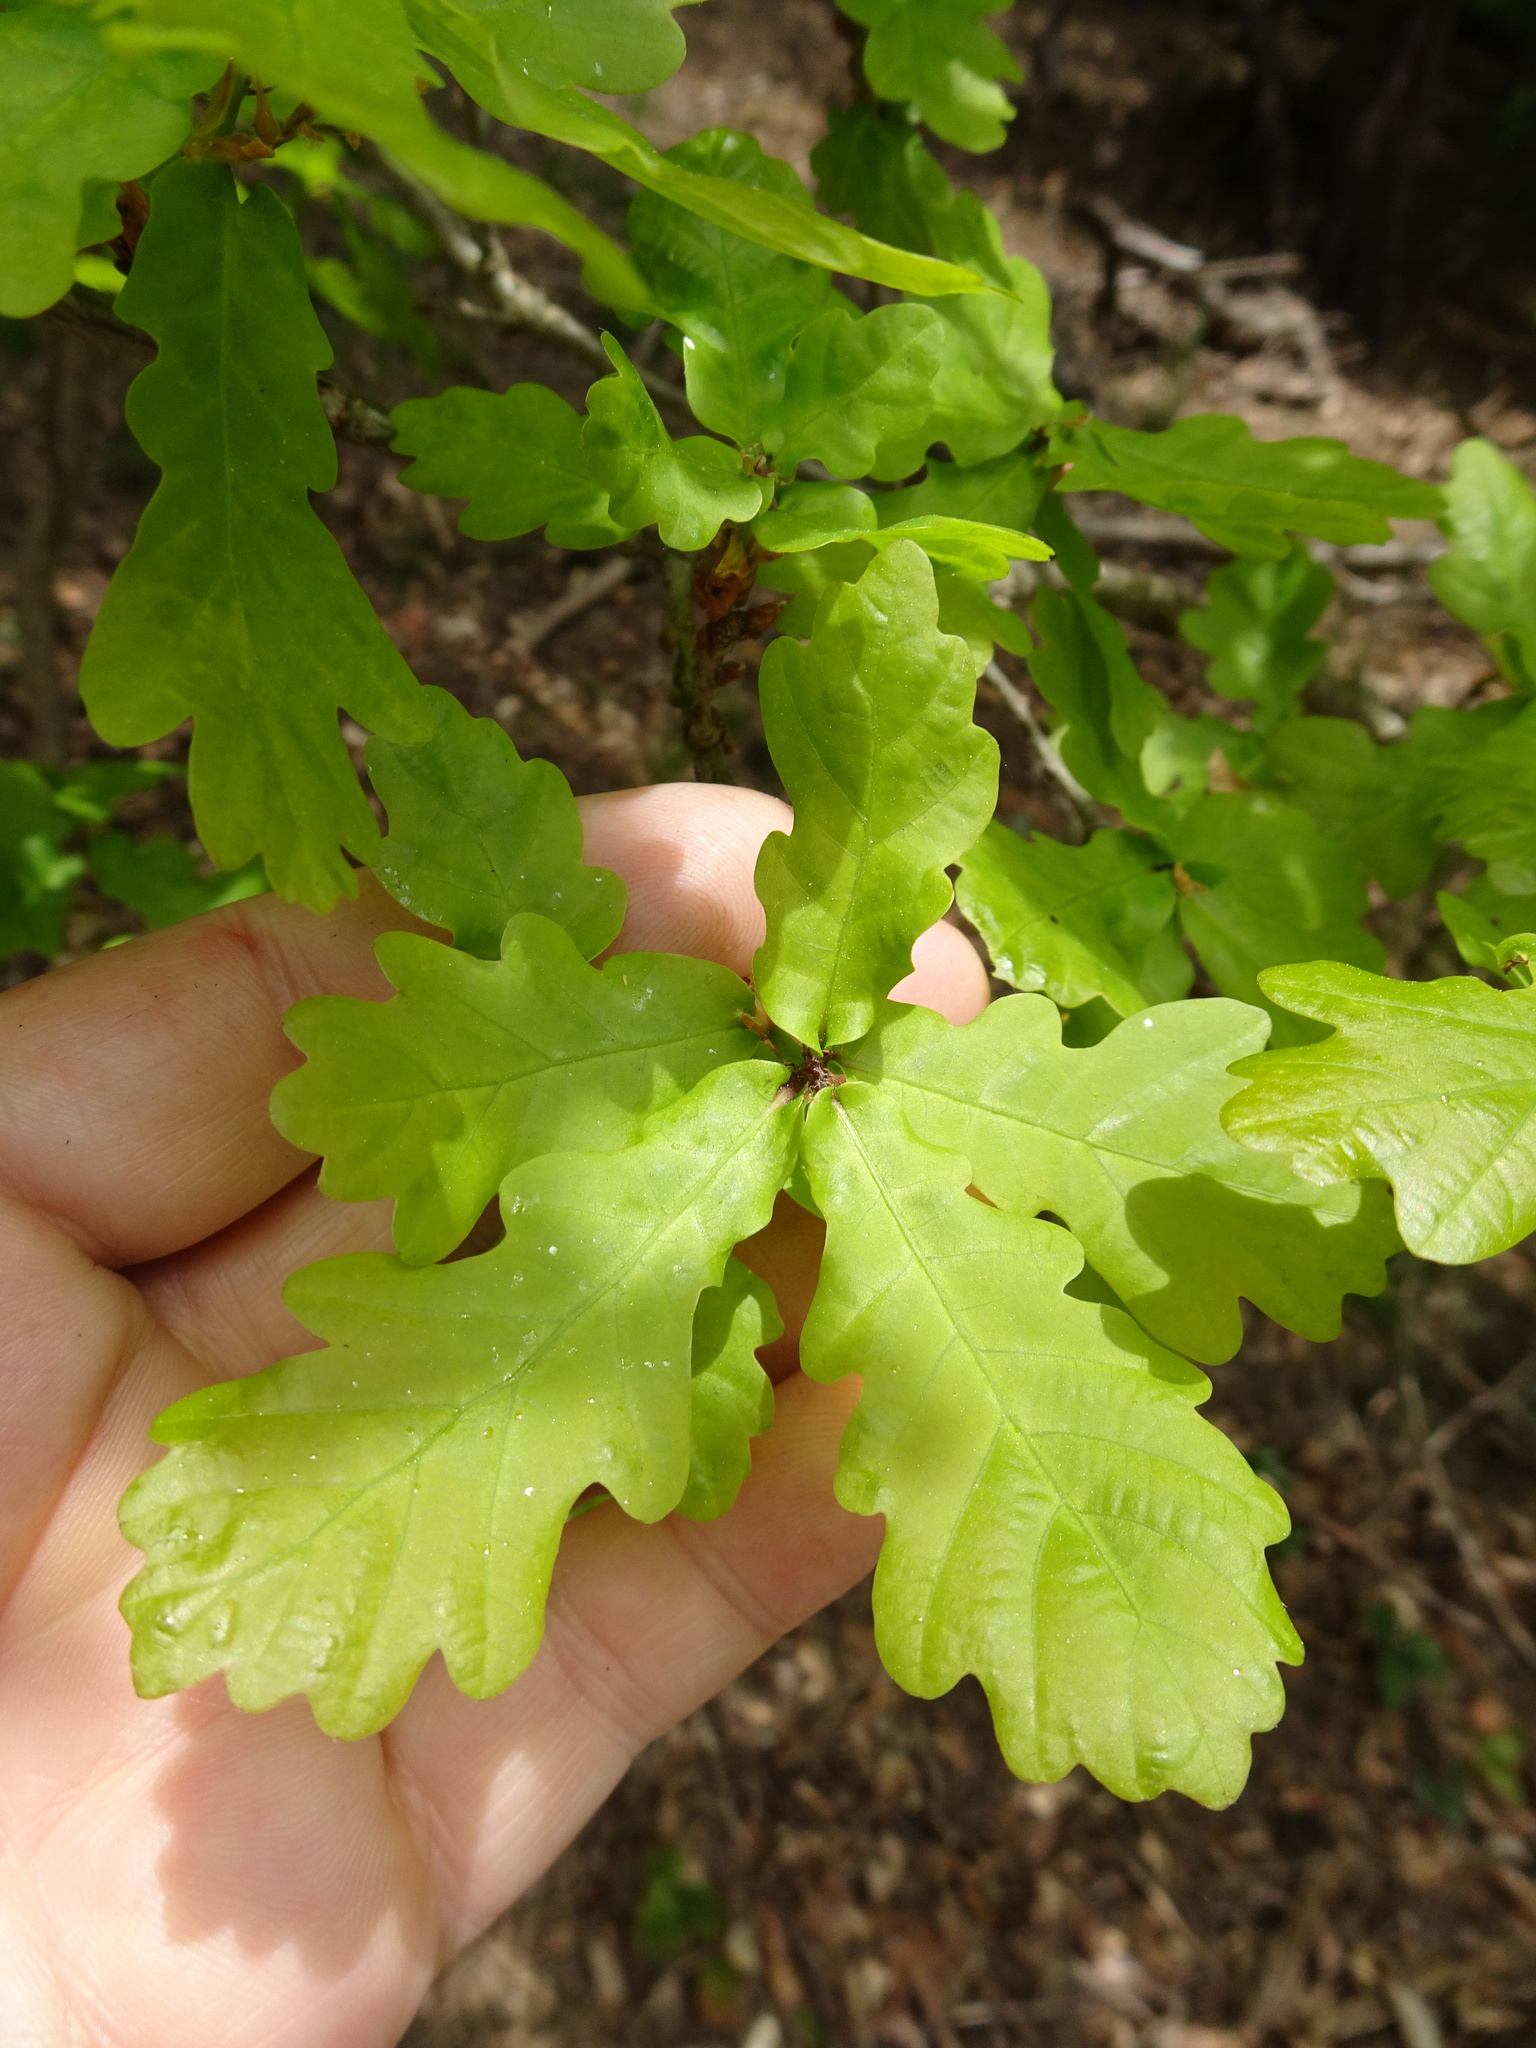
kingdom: Plantae
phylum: Tracheophyta
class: Magnoliopsida
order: Fagales
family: Fagaceae
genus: Quercus
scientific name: Quercus robur
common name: Pedunculate oak
